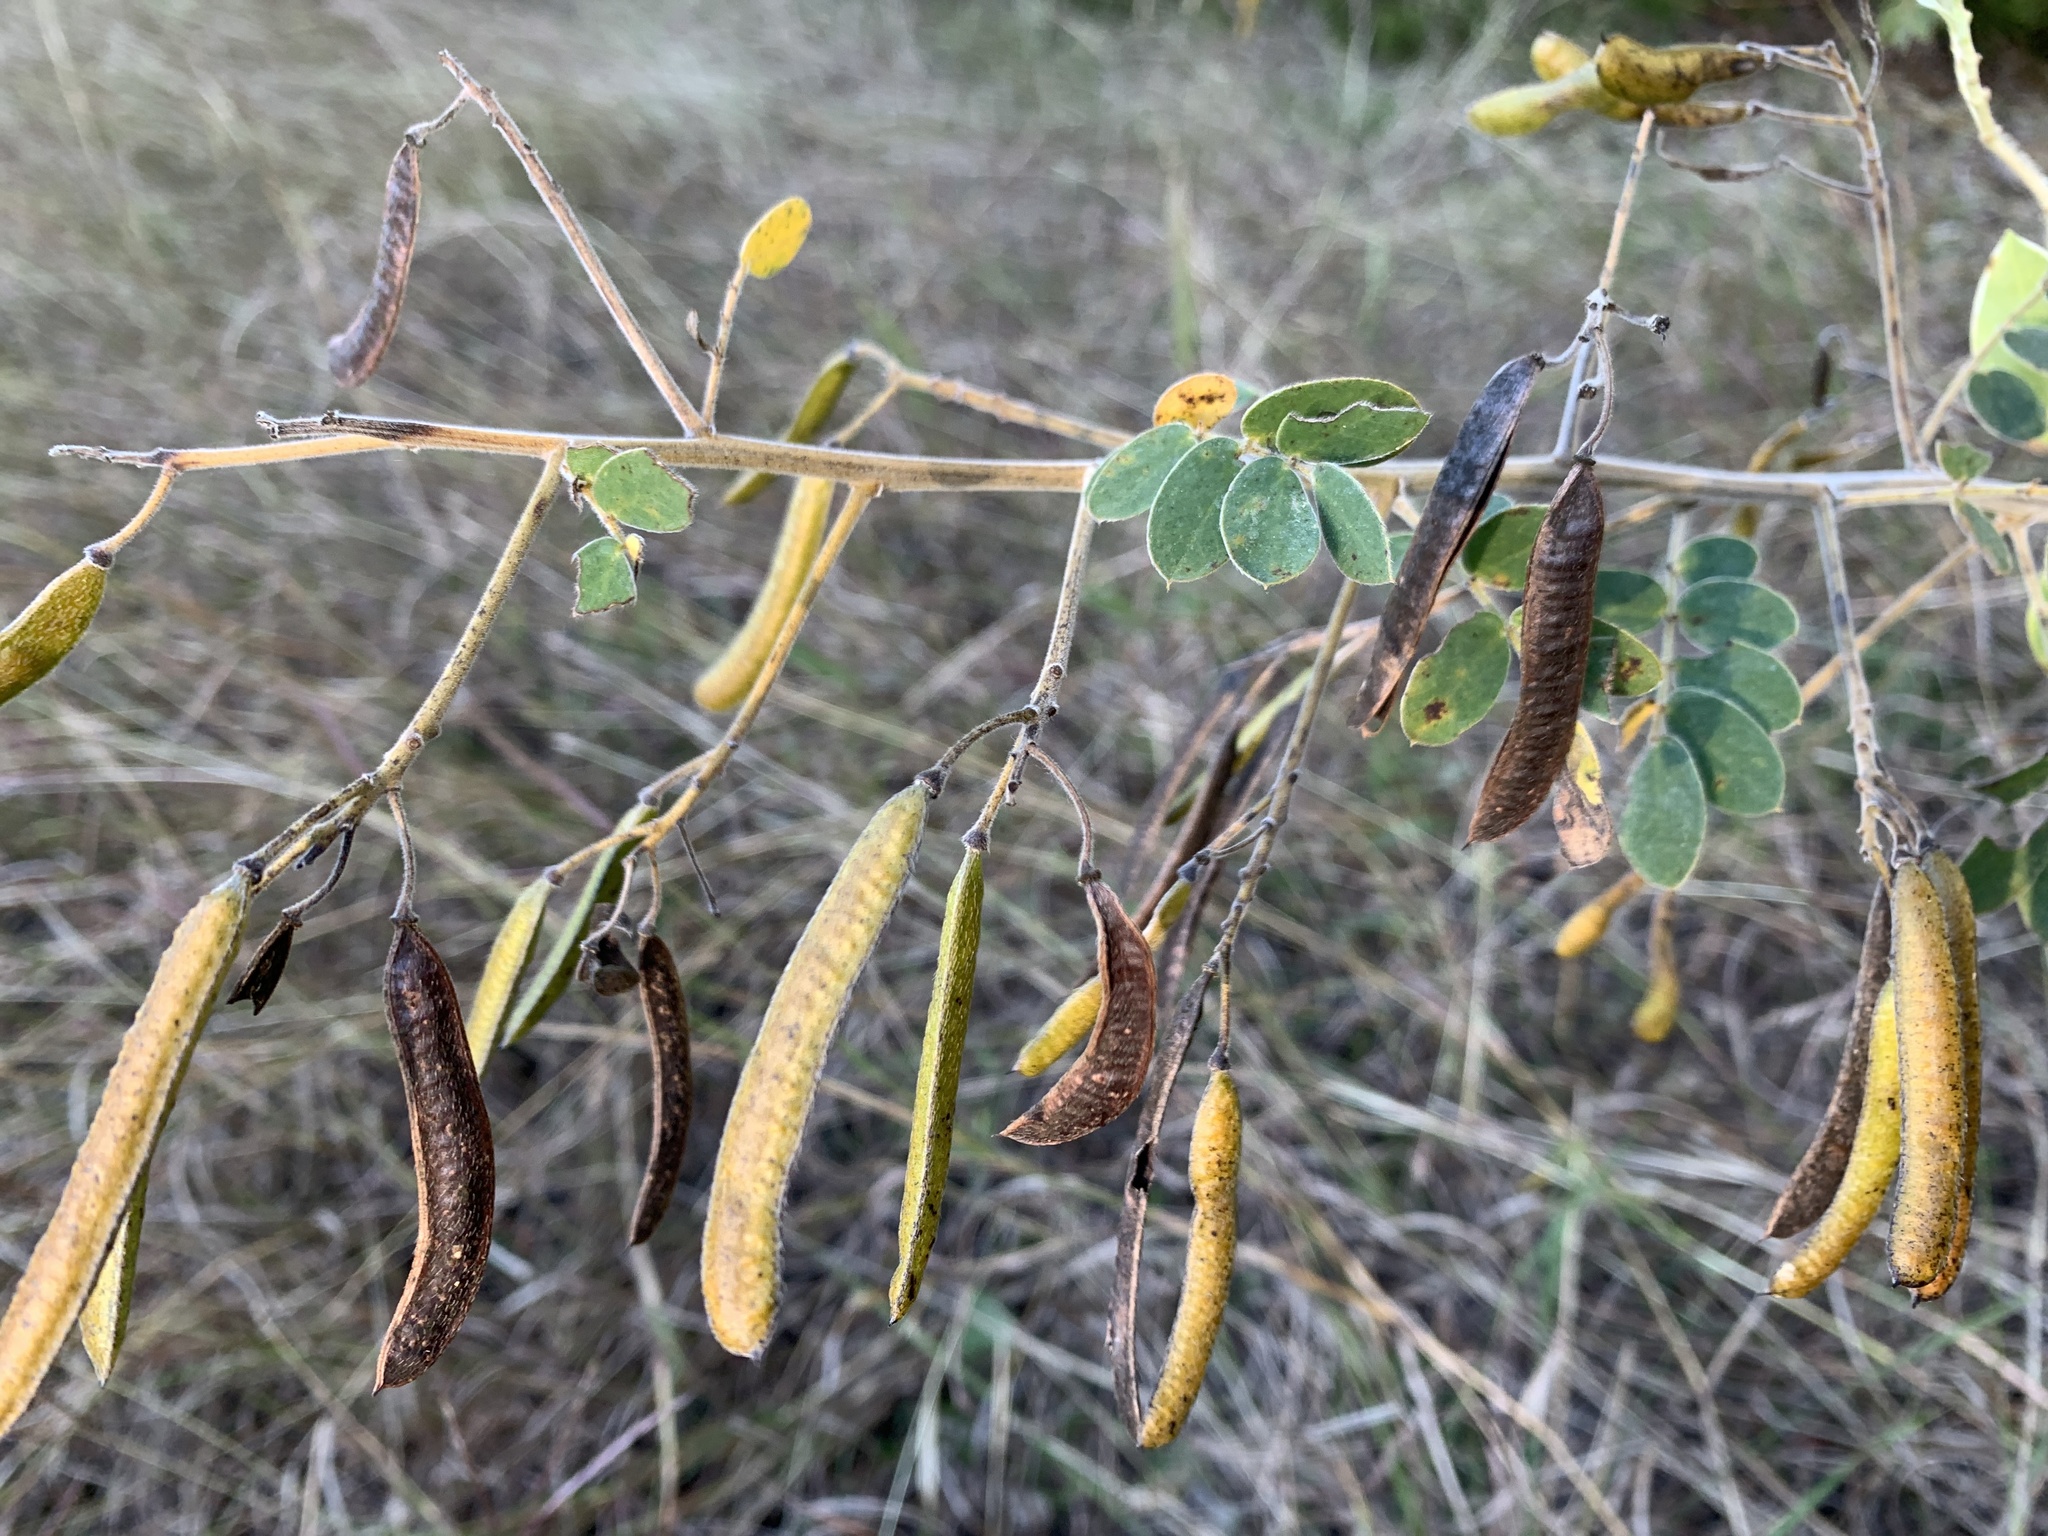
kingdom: Plantae
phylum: Tracheophyta
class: Magnoliopsida
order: Fabales
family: Fabaceae
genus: Senna
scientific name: Senna lindheimeriana
